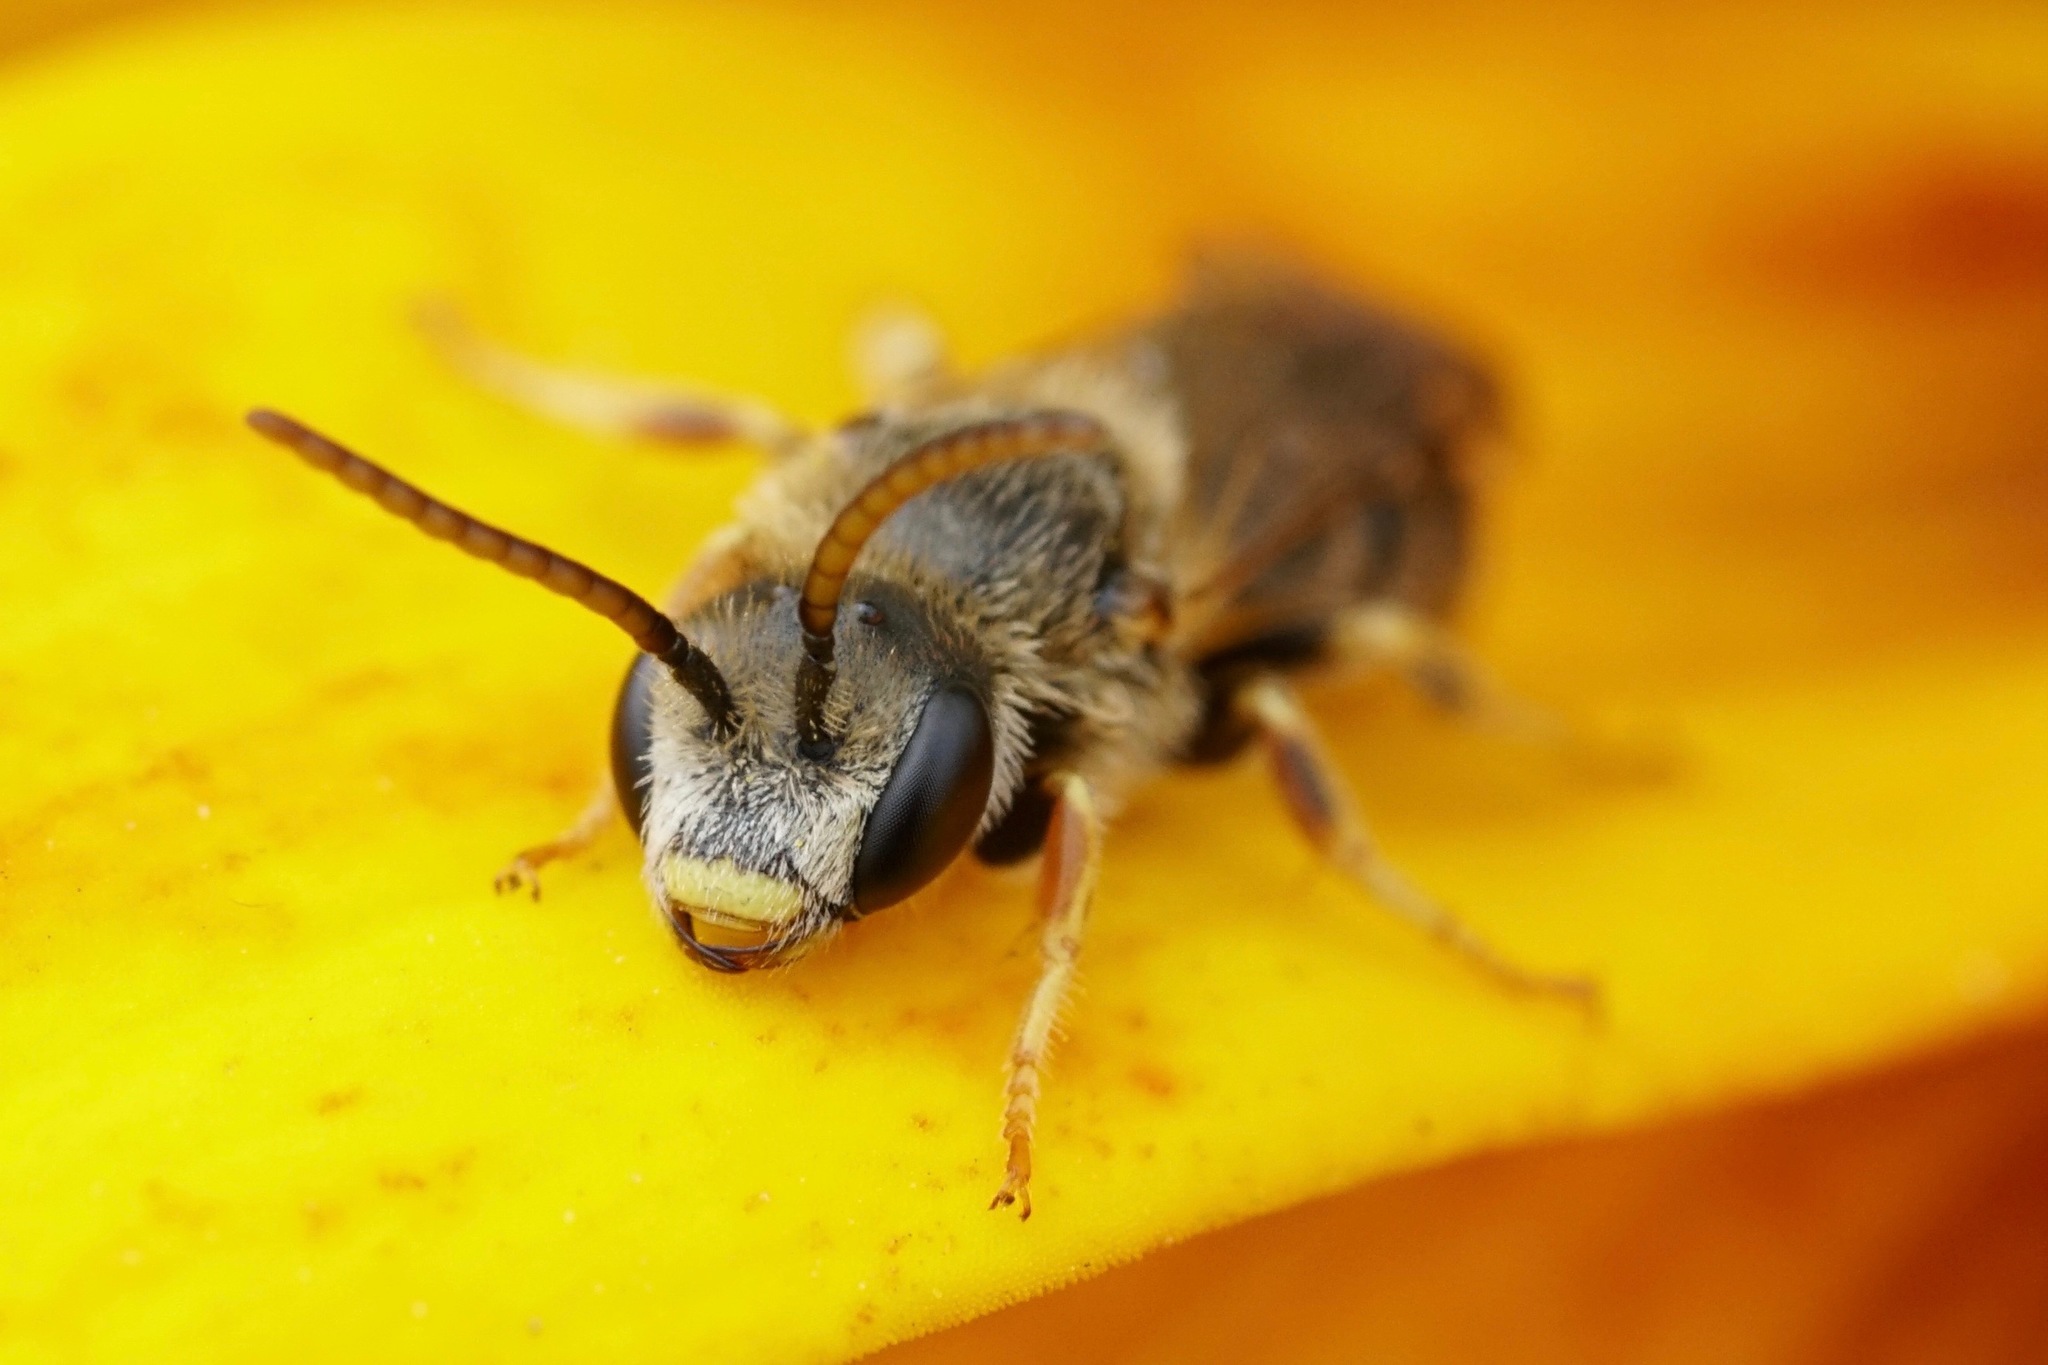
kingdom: Animalia
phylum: Arthropoda
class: Insecta
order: Hymenoptera
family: Halictidae
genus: Halictus
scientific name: Halictus ligatus
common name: Ligated furrow bee
